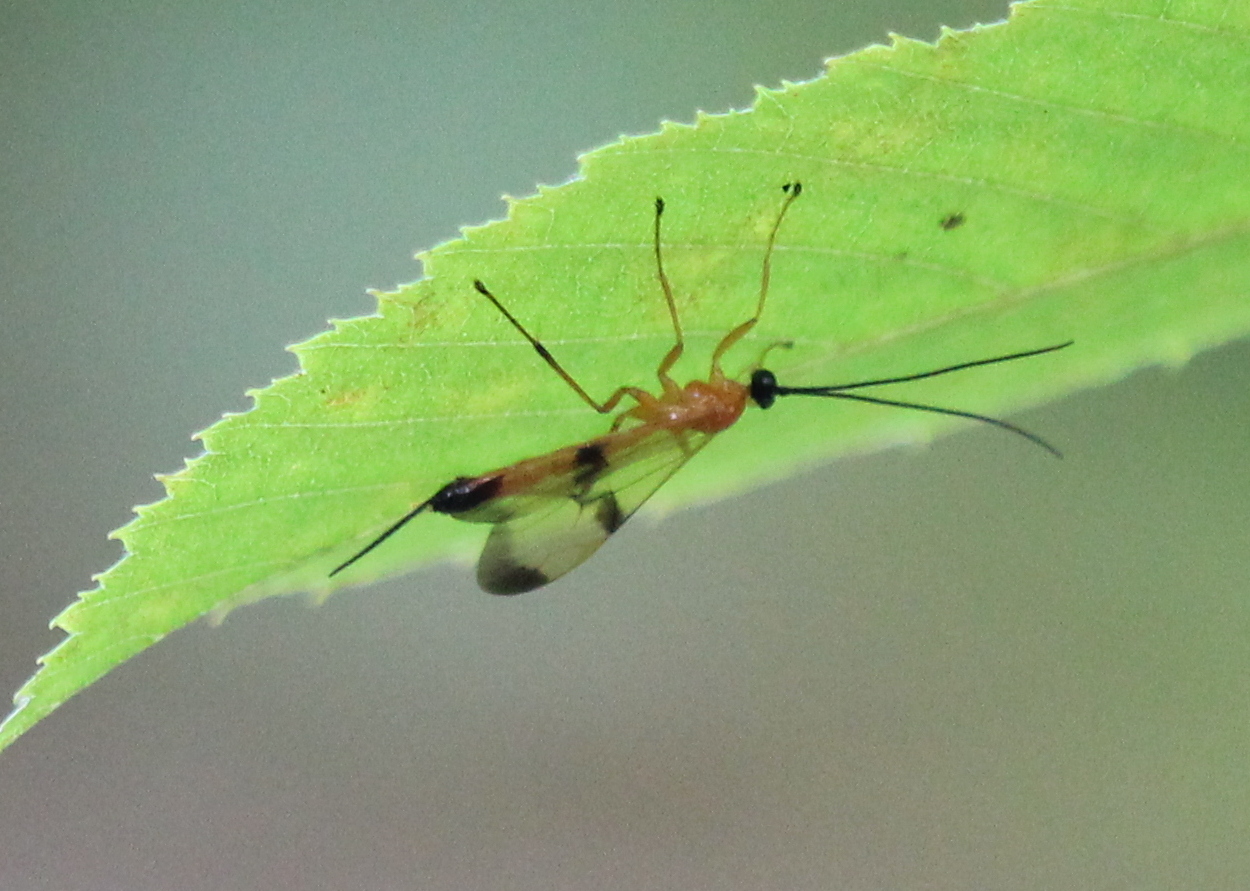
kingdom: Animalia
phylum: Arthropoda
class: Insecta
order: Hymenoptera
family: Ichneumonidae
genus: Acrotaphus
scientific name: Acrotaphus wiltii
